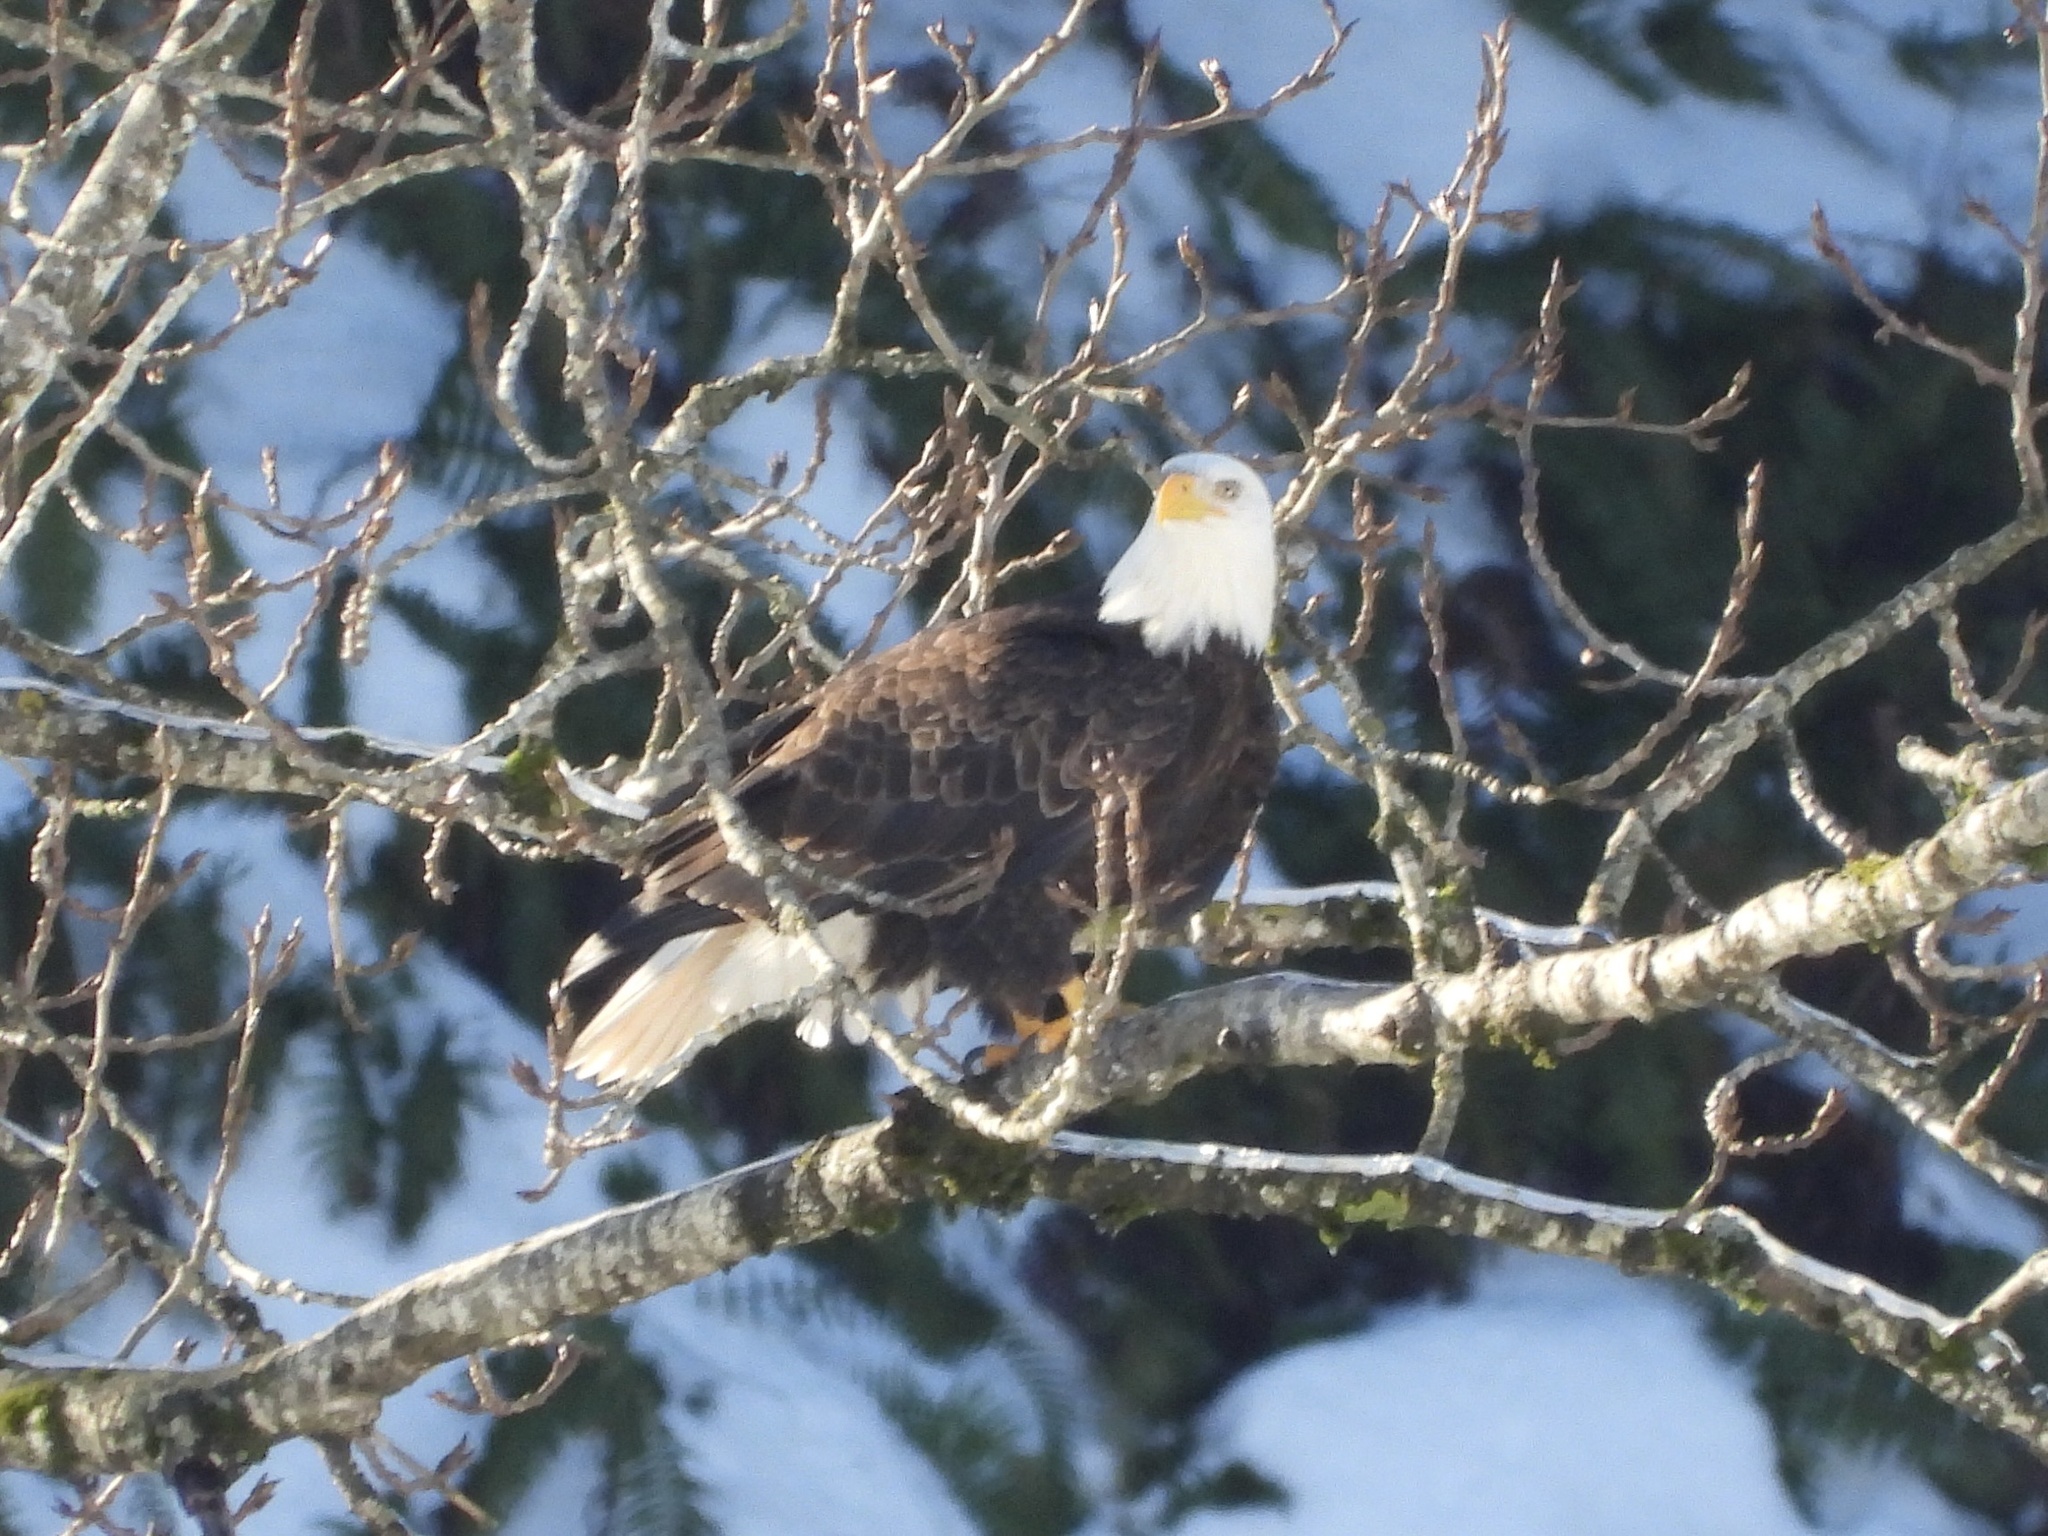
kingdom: Animalia
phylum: Chordata
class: Aves
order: Accipitriformes
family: Accipitridae
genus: Haliaeetus
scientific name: Haliaeetus leucocephalus
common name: Bald eagle
